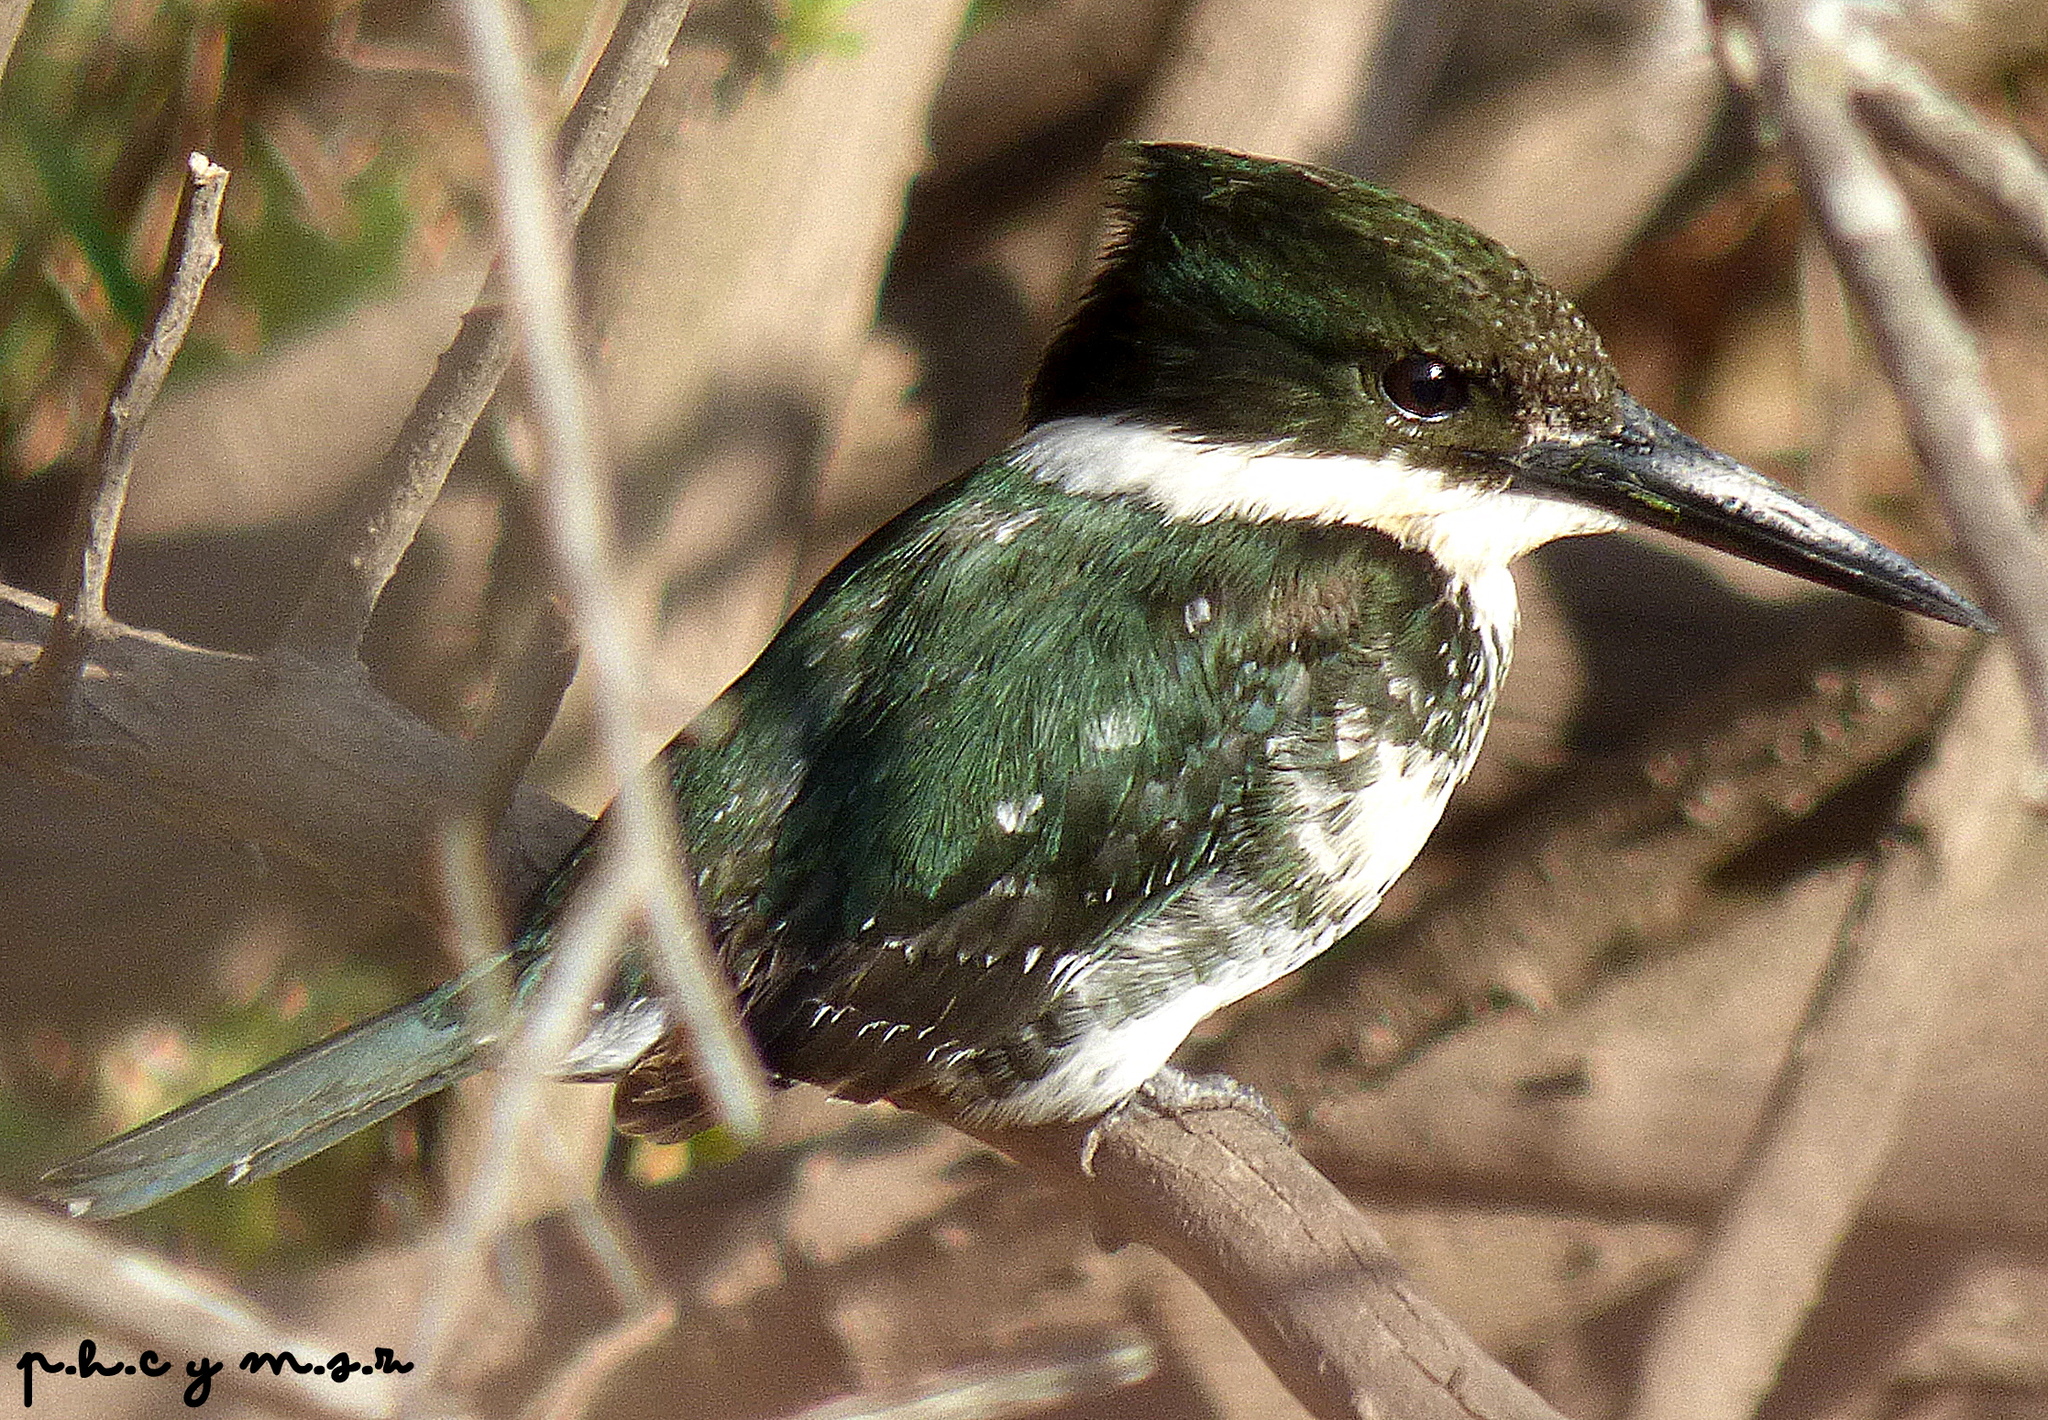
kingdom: Animalia
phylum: Chordata
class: Aves
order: Coraciiformes
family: Alcedinidae
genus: Chloroceryle
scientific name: Chloroceryle americana
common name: Green kingfisher
